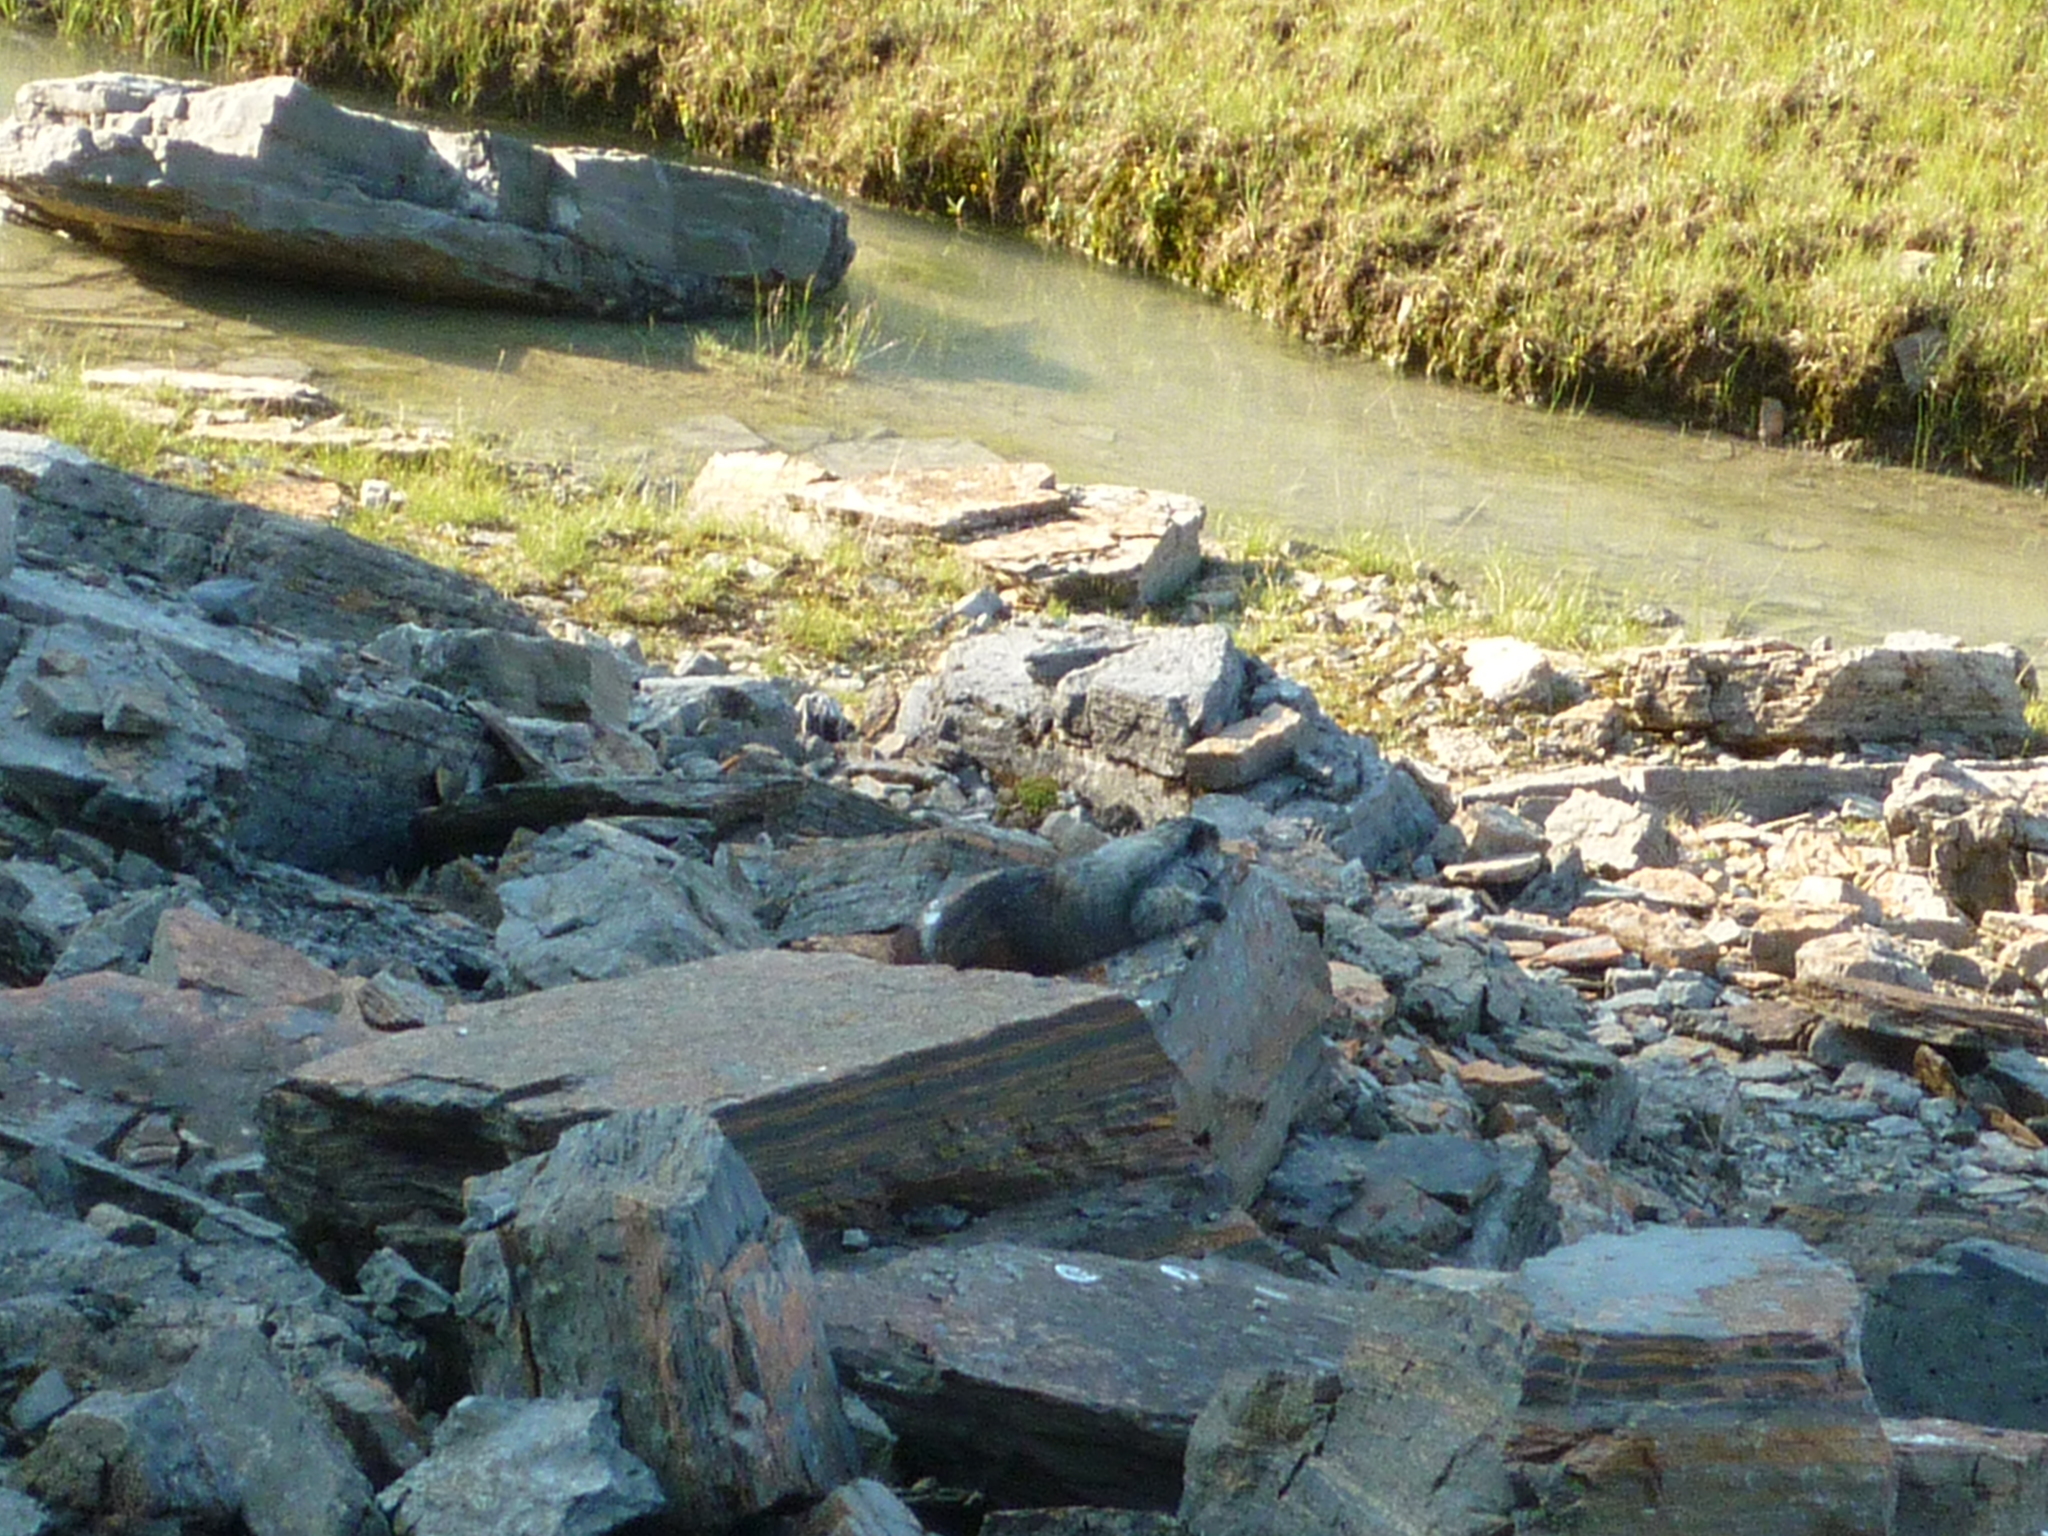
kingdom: Animalia
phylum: Chordata
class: Mammalia
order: Rodentia
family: Sciuridae
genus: Marmota
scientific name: Marmota caligata
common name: Hoary marmot
